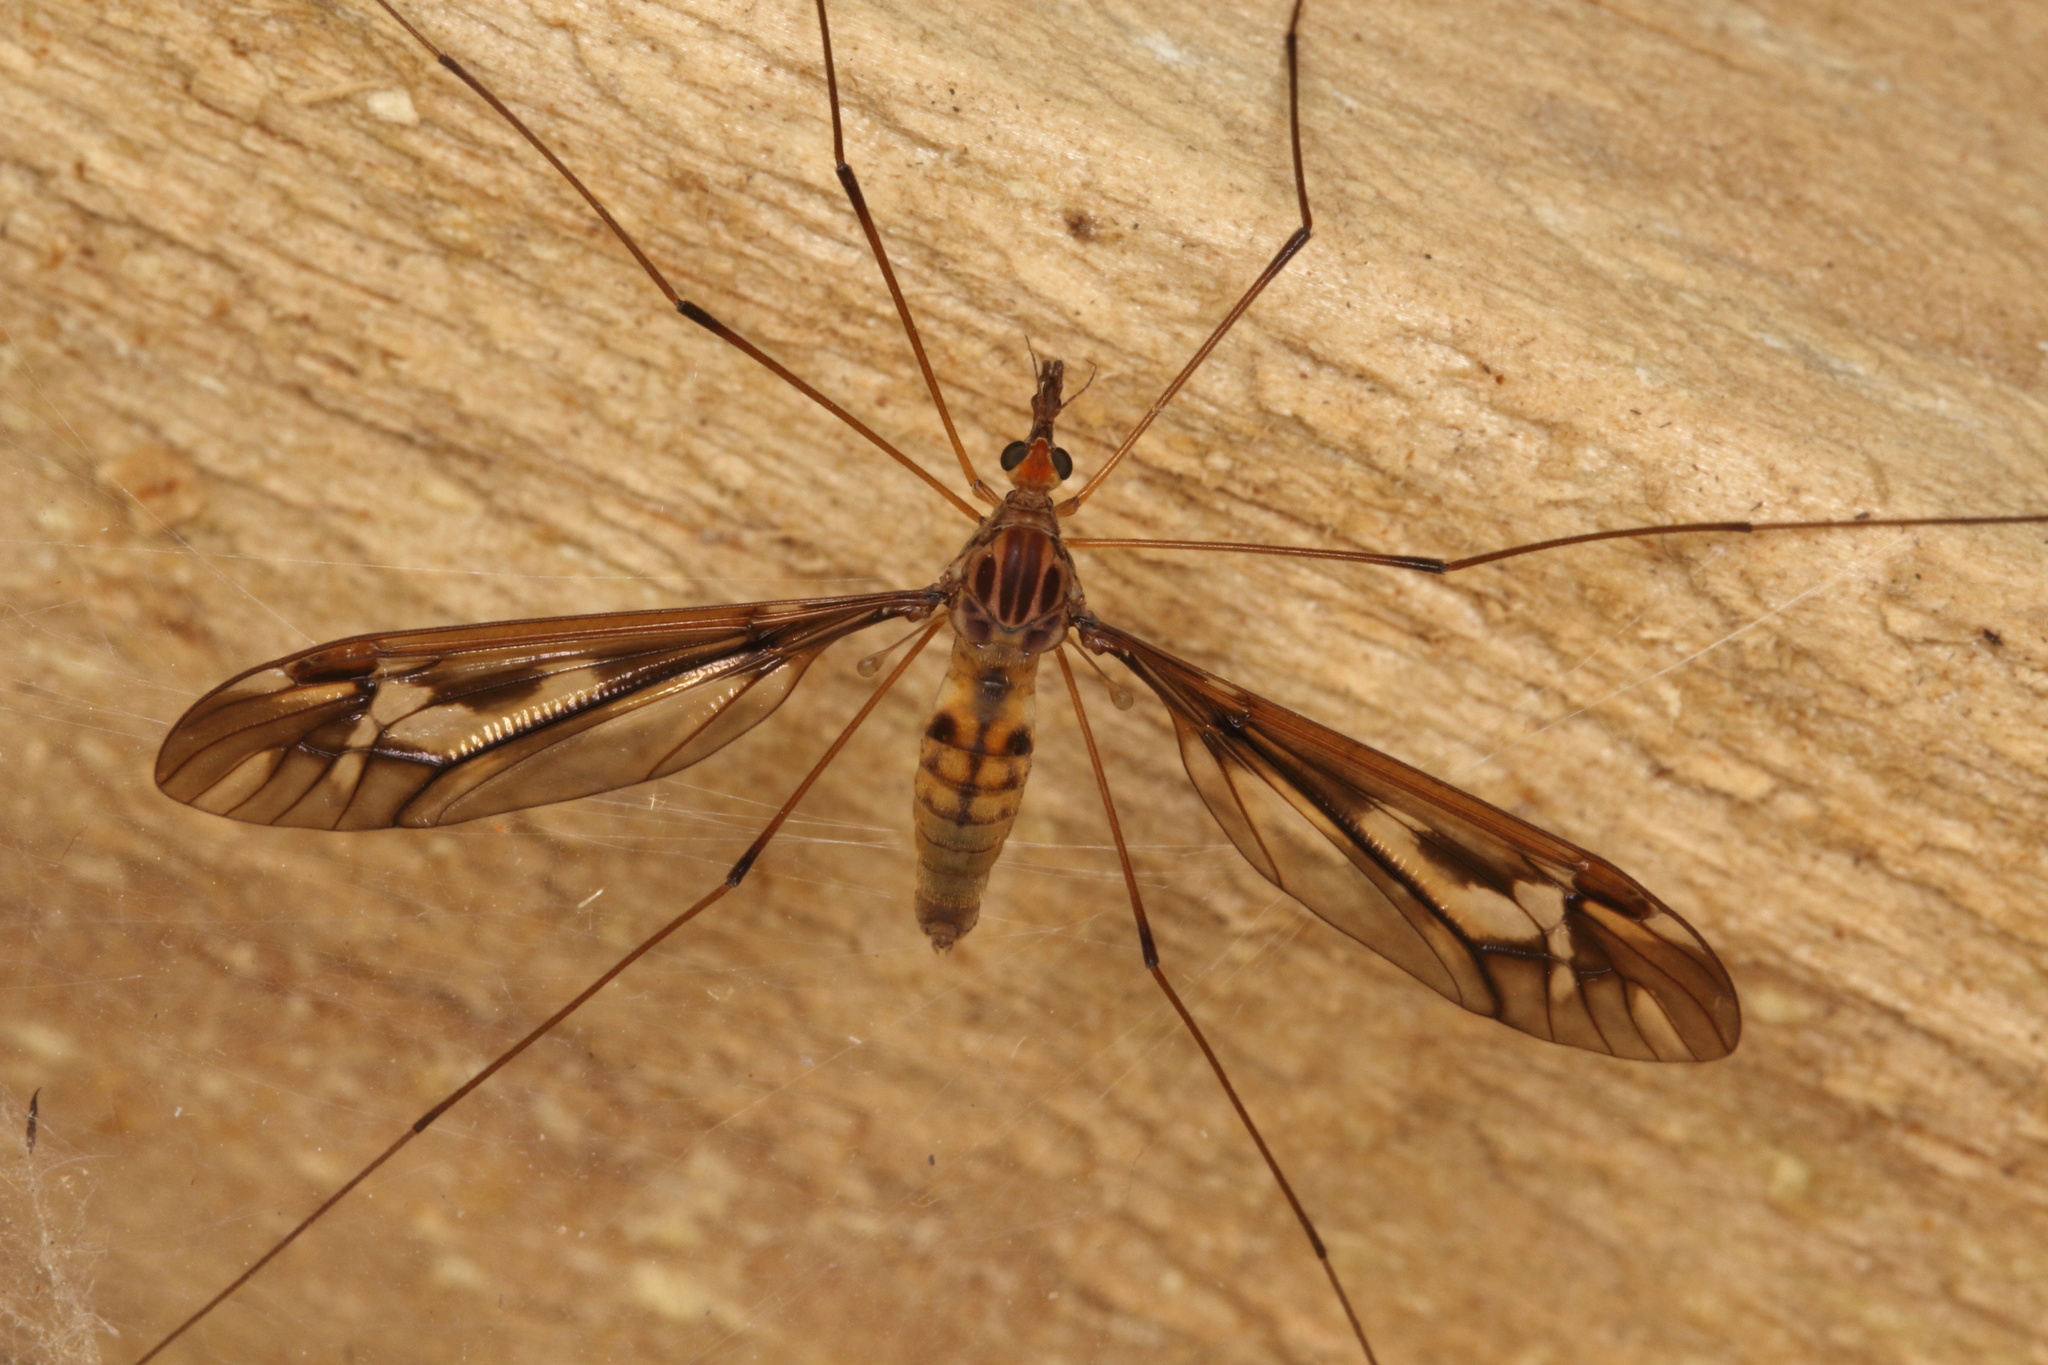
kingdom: Animalia
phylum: Arthropoda
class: Insecta
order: Diptera
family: Tipulidae
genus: Leptotarsus
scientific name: Leptotarsus huttoni
